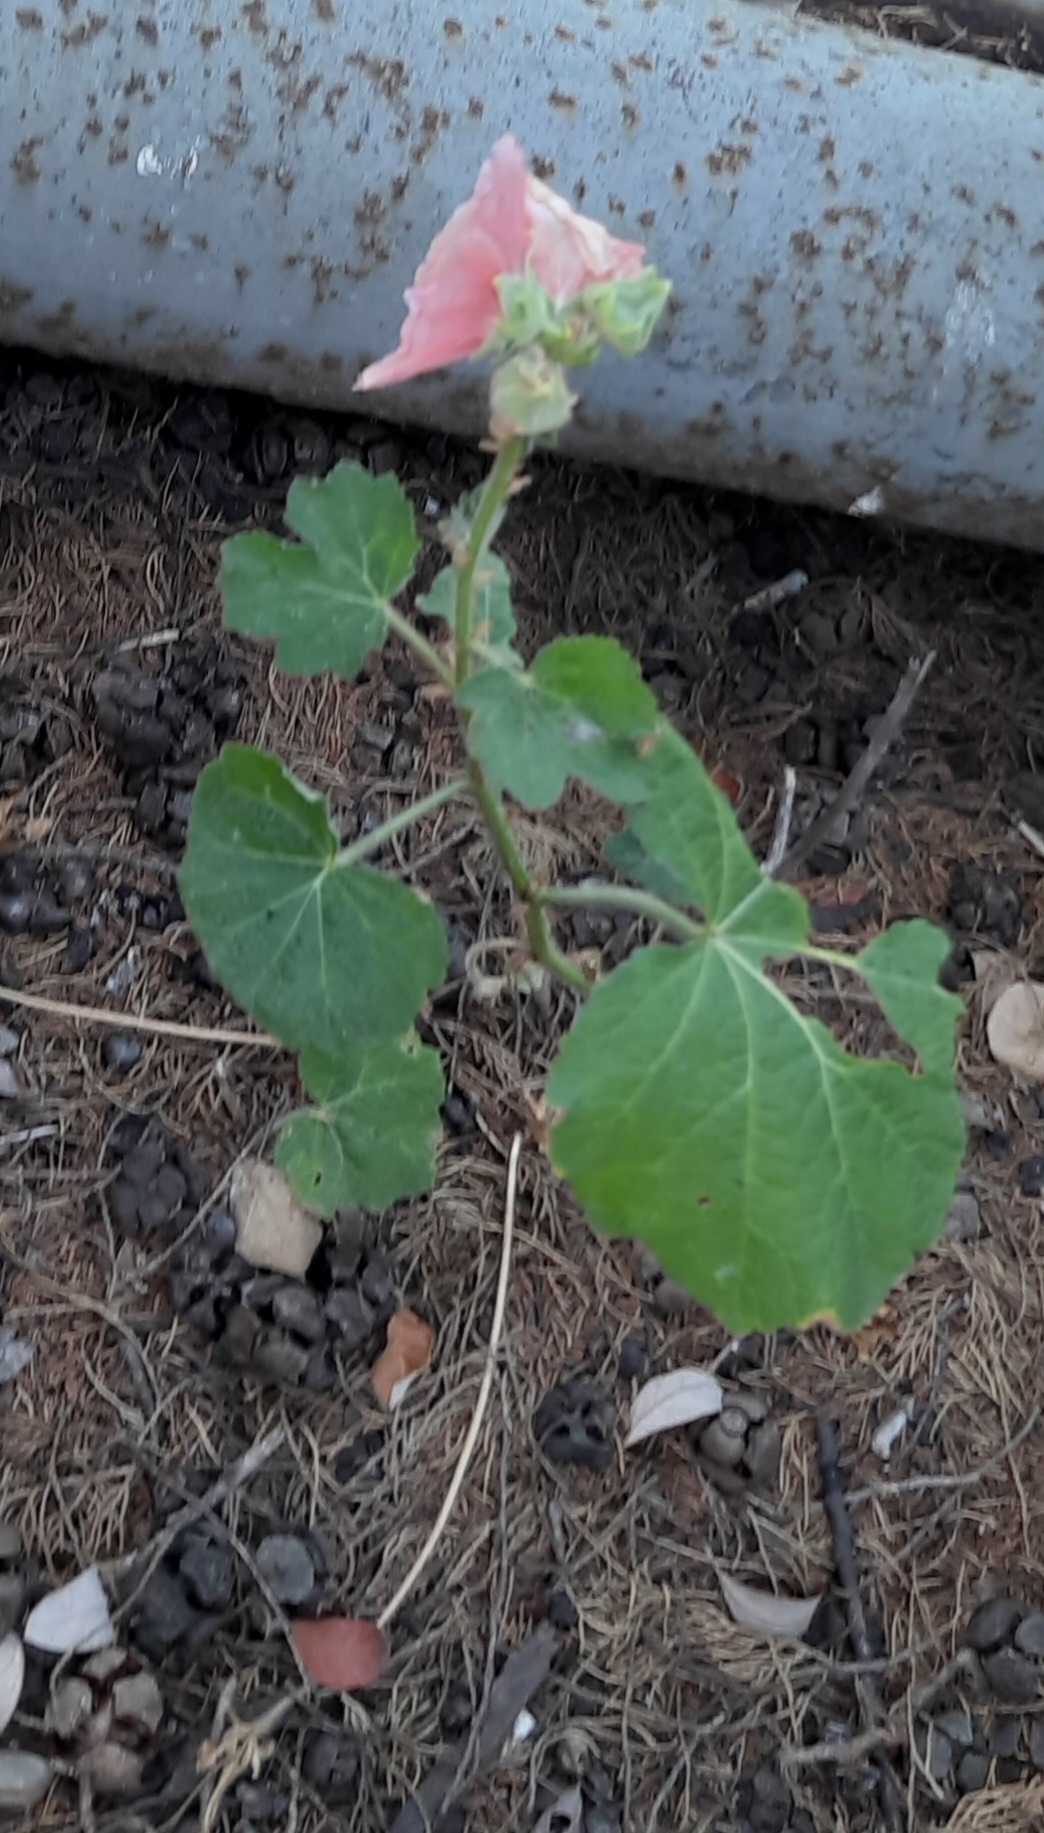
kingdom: Plantae
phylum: Tracheophyta
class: Magnoliopsida
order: Malvales
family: Malvaceae
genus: Alcea
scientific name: Alcea rosea
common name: Hollyhock
